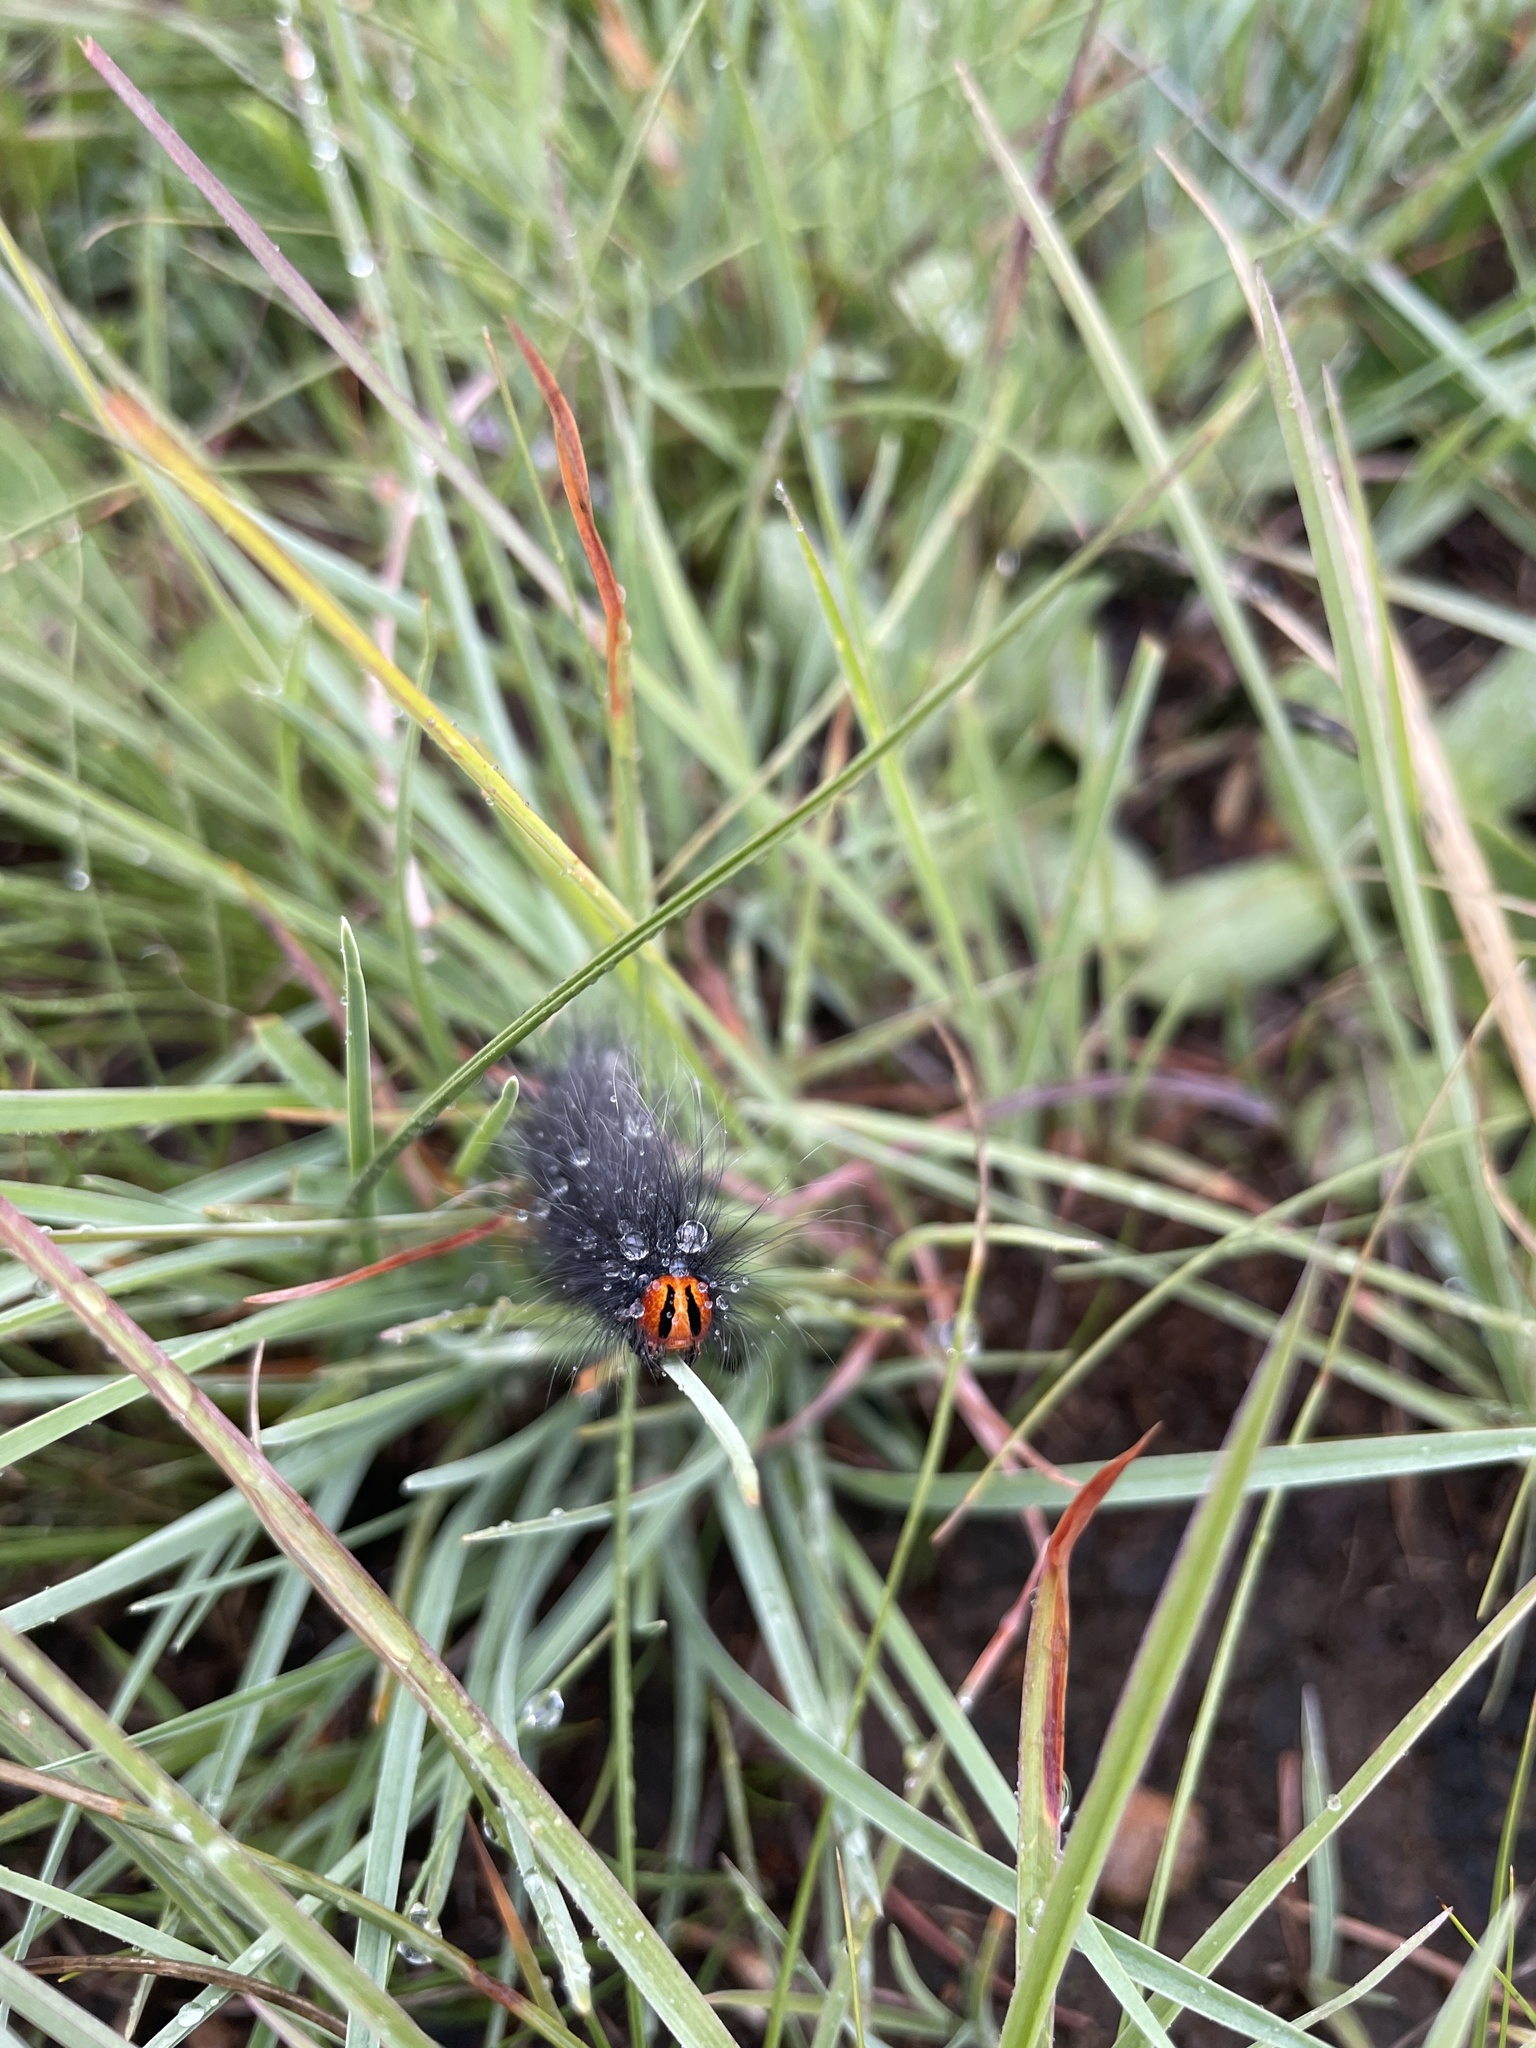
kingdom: Animalia
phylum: Arthropoda
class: Insecta
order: Lepidoptera
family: Lasiocampidae
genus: Mesocelis
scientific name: Mesocelis monticola
